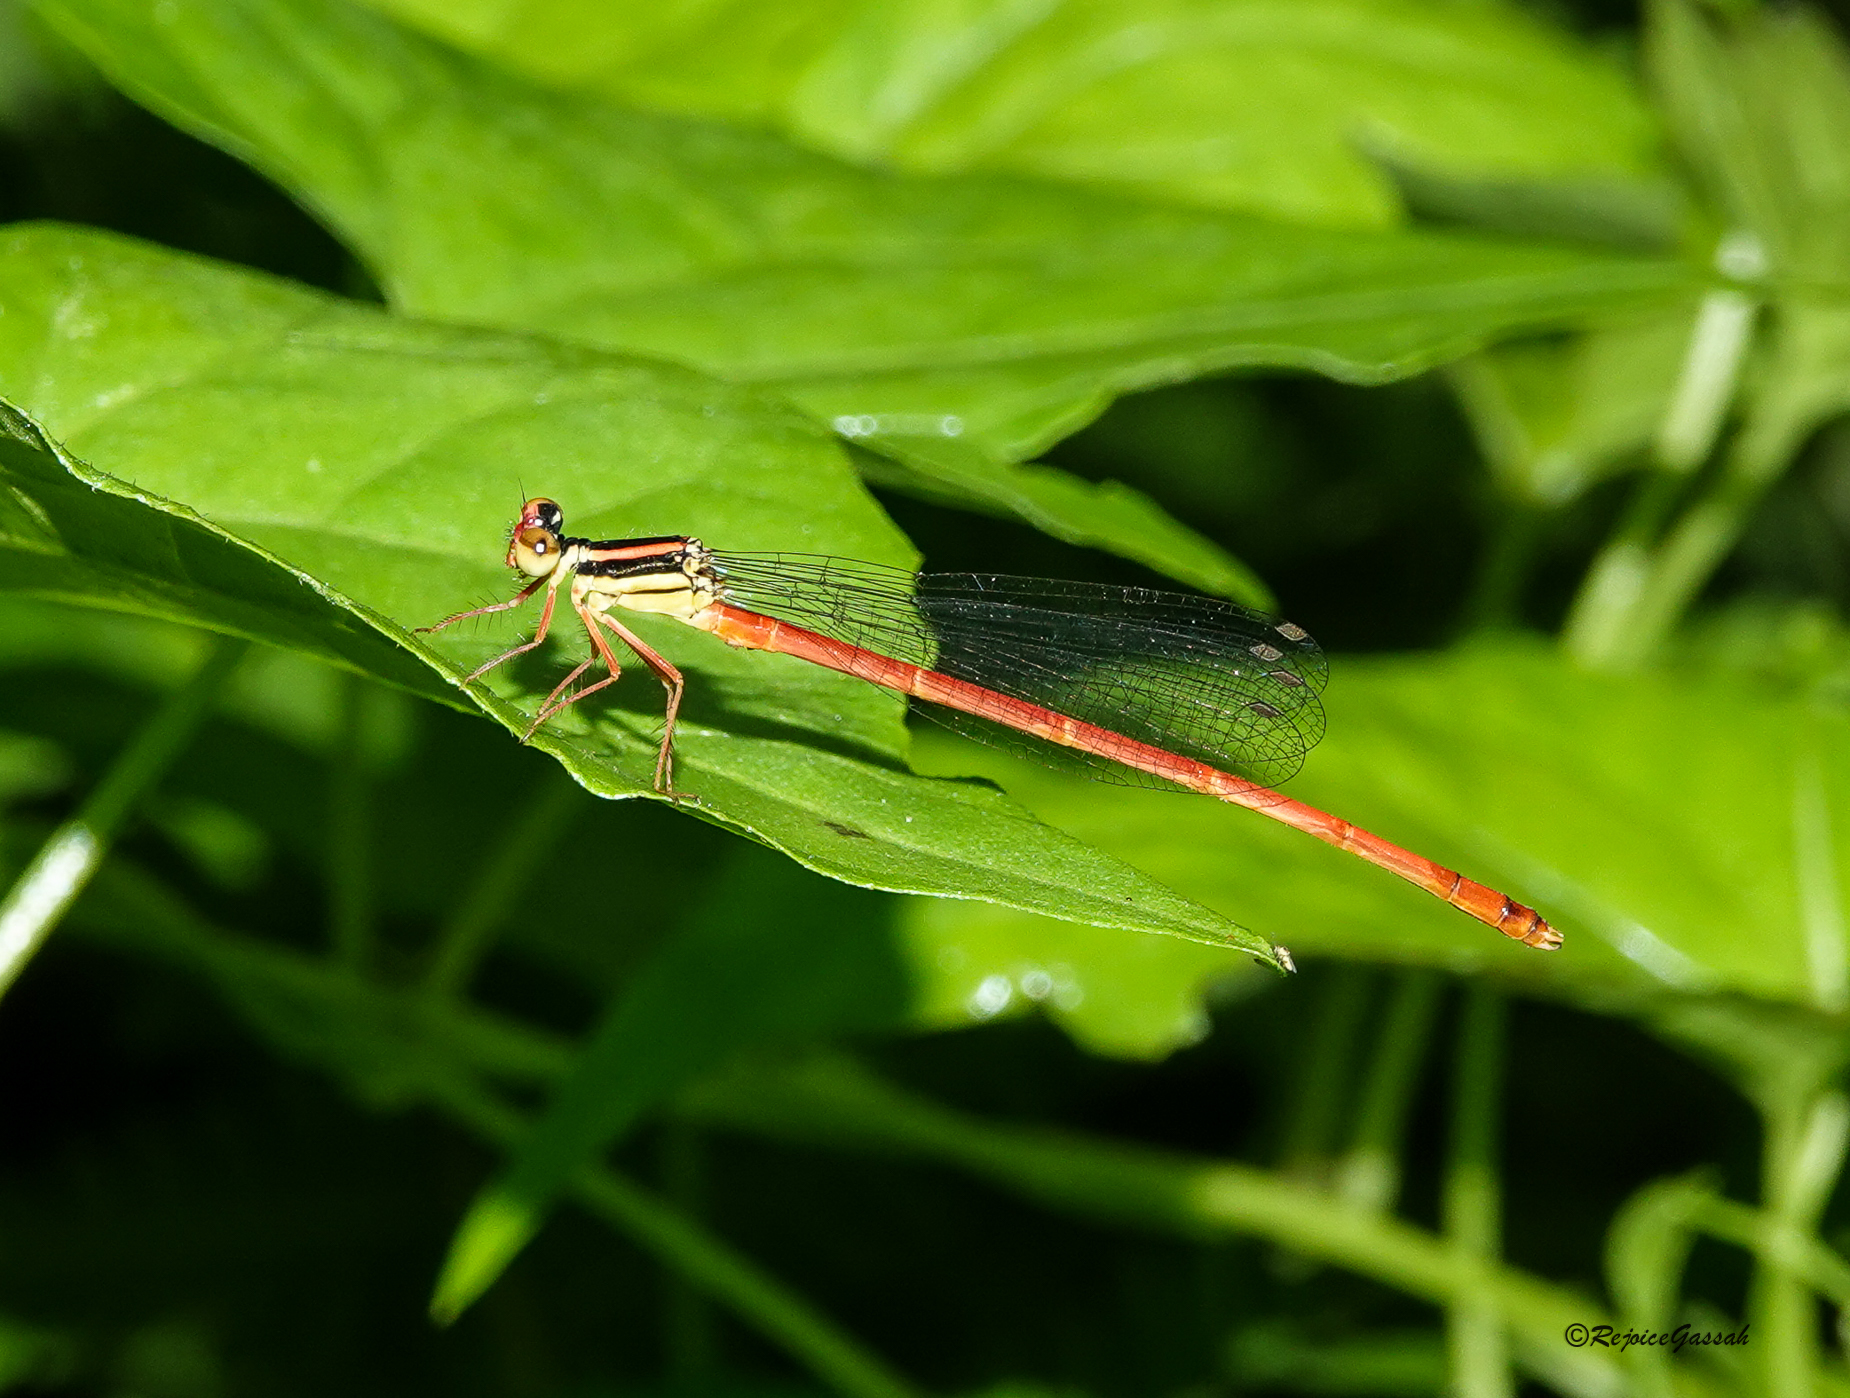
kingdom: Animalia
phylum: Arthropoda
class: Insecta
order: Odonata
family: Platycnemididae
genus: Calicnemia
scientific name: Calicnemia eximia
